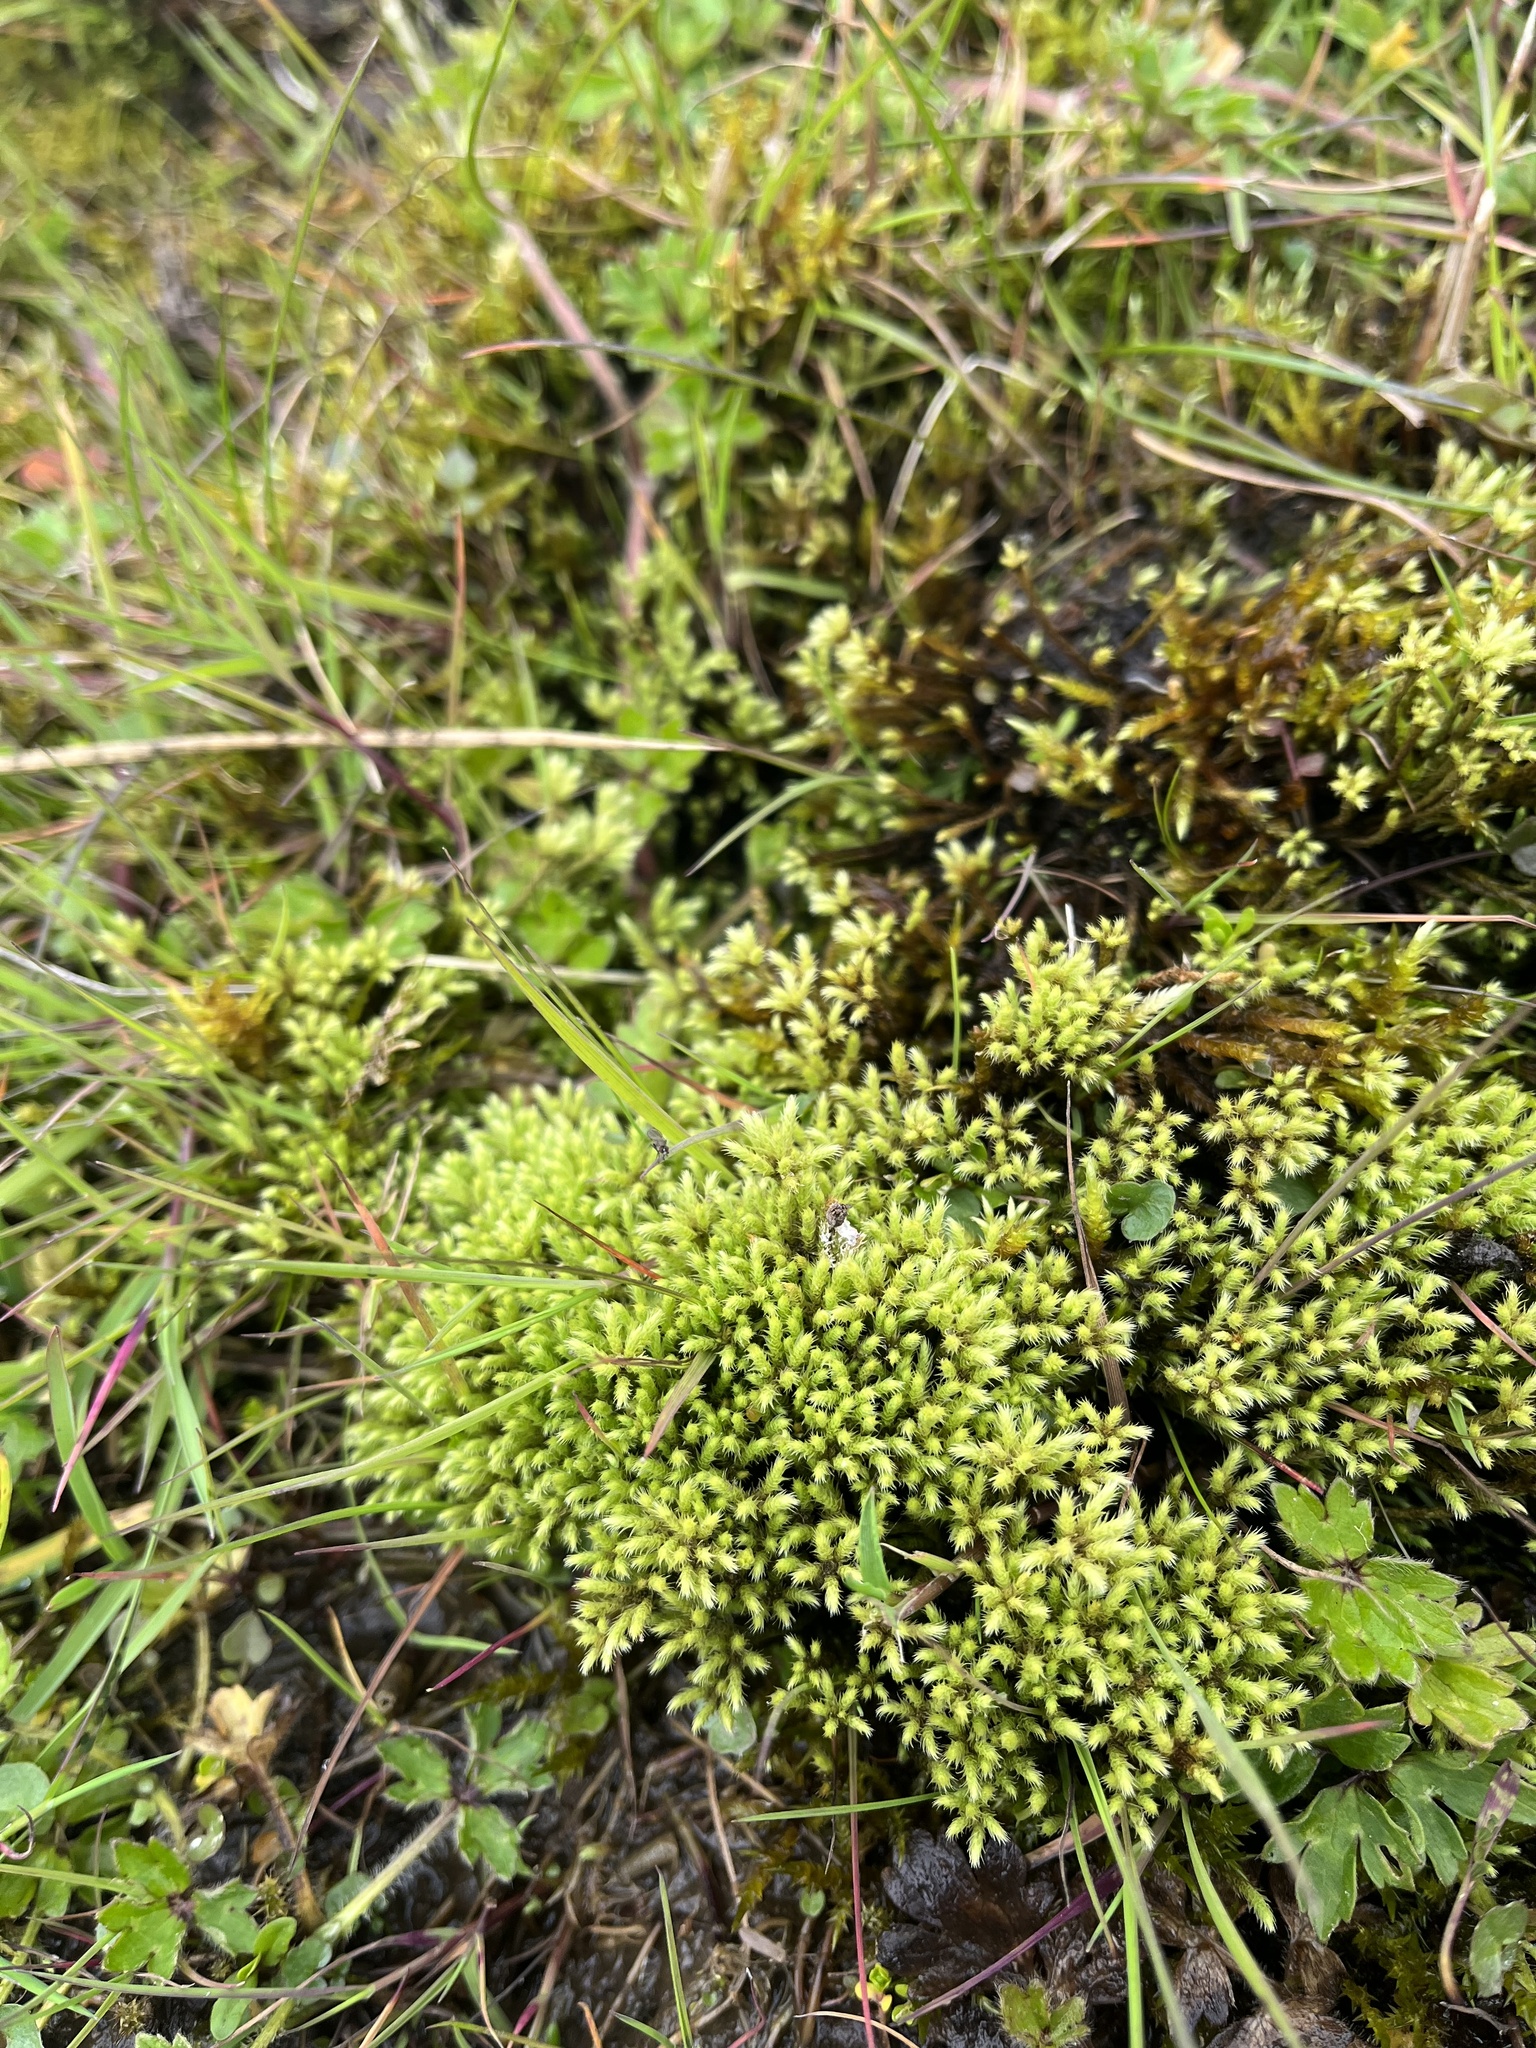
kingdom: Plantae
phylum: Bryophyta
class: Bryopsida
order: Bartramiales
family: Bartramiaceae
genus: Philonotis
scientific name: Philonotis fontana
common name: Fountain apple-moss
